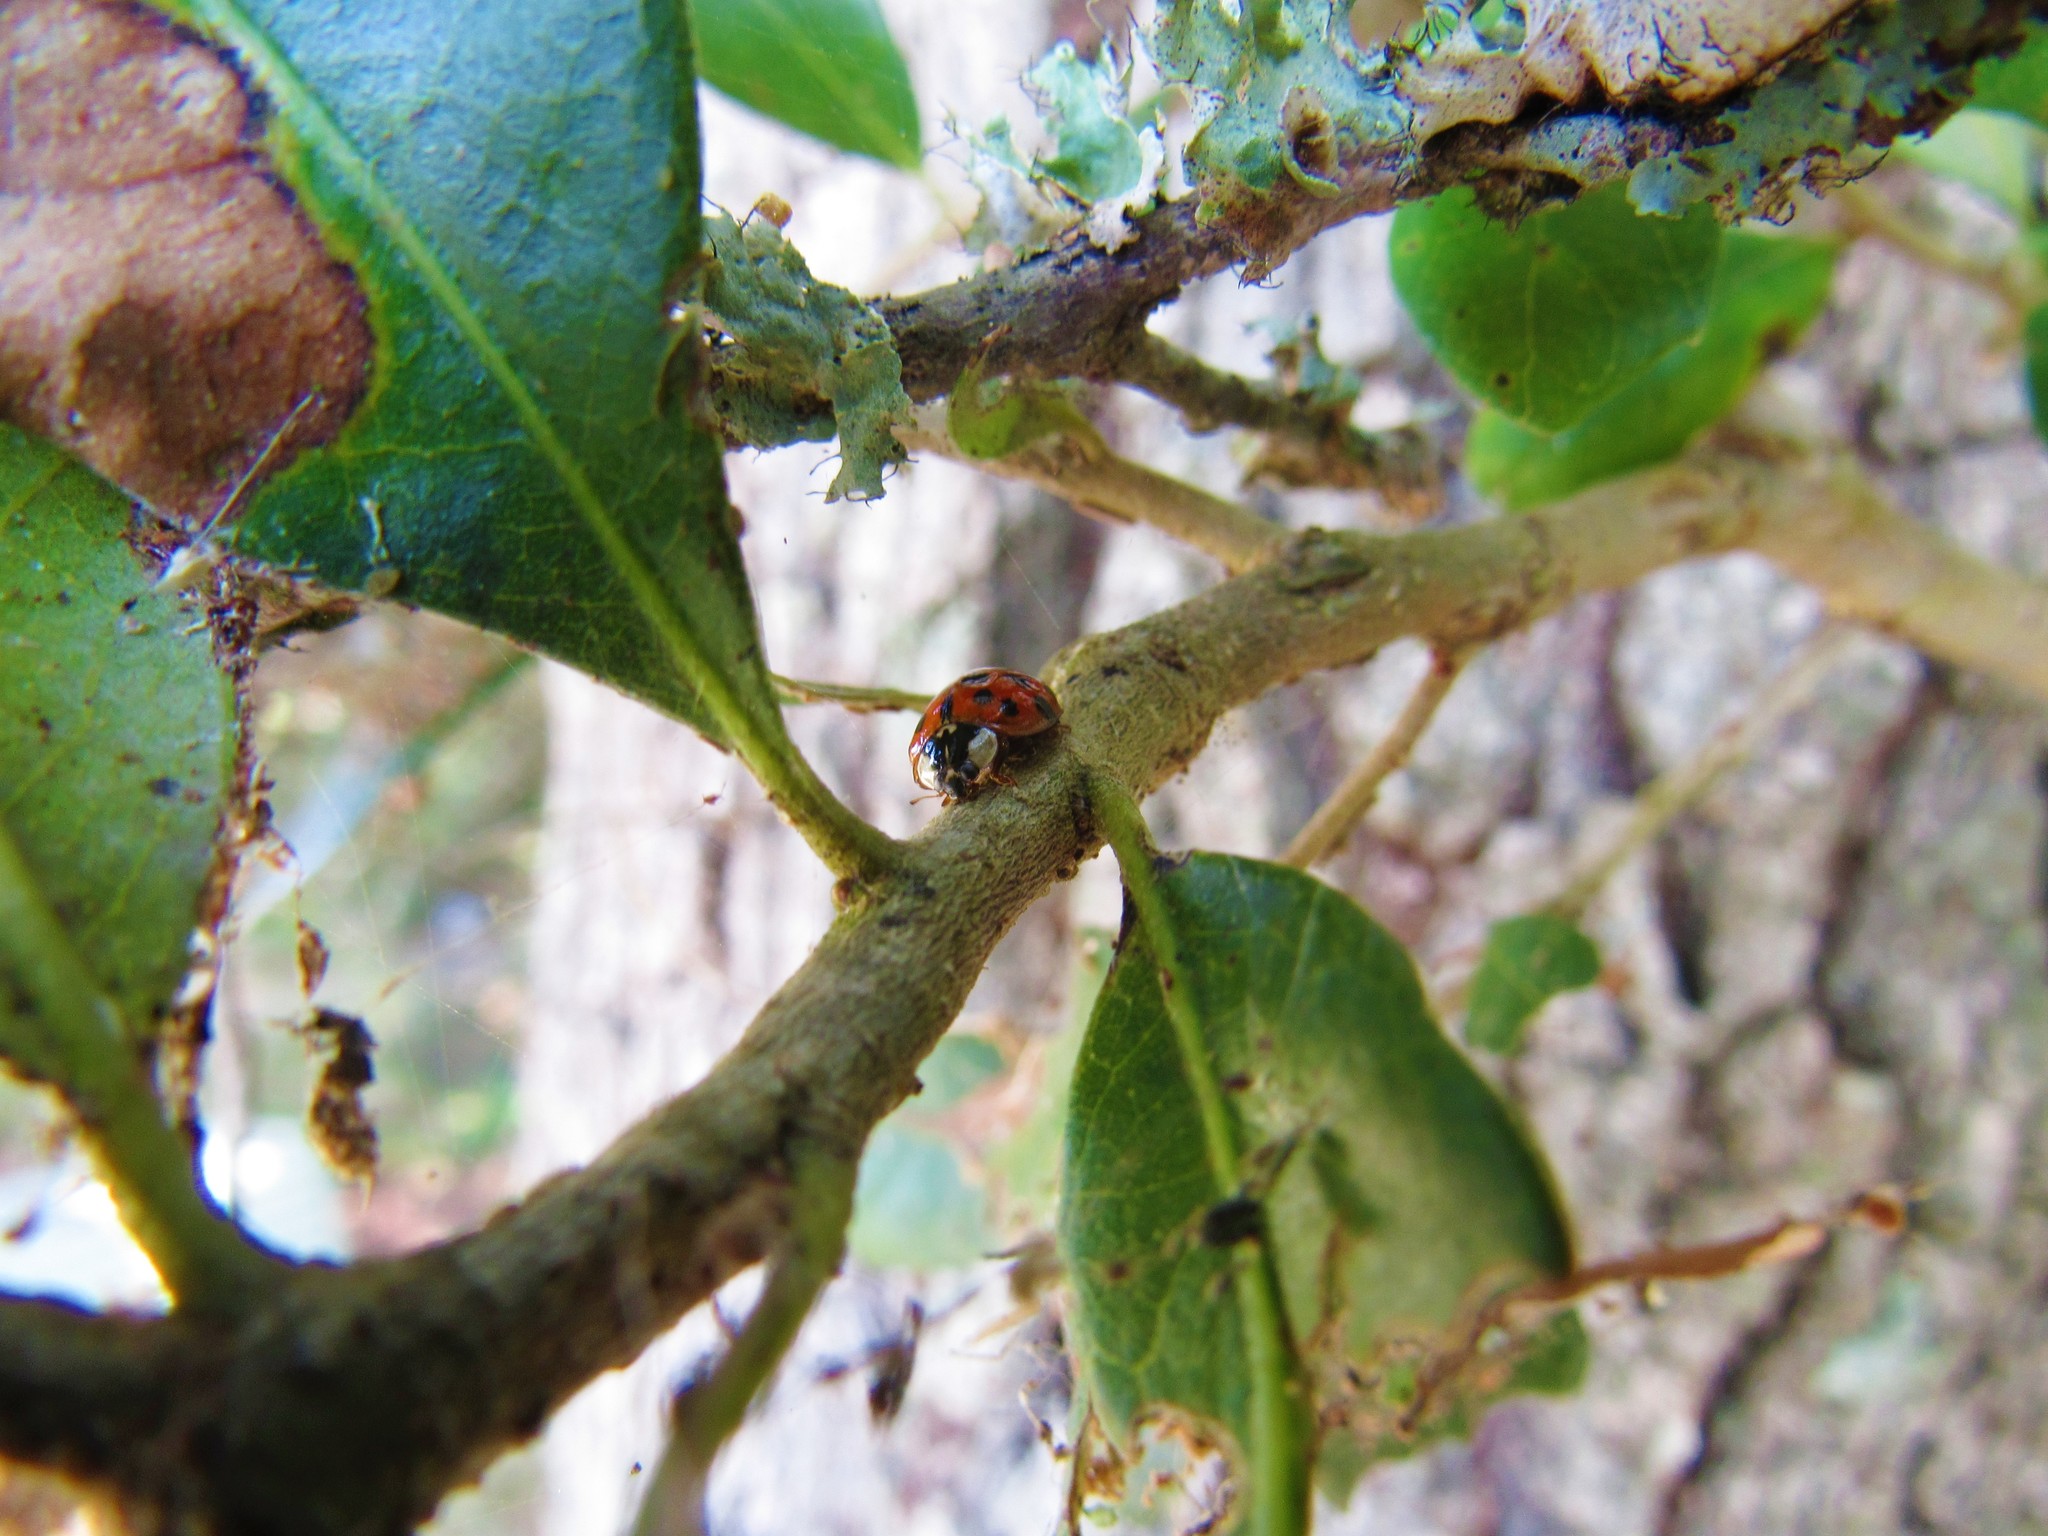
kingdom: Animalia
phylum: Arthropoda
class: Insecta
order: Coleoptera
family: Coccinellidae
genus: Harmonia
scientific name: Harmonia axyridis
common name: Harlequin ladybird
